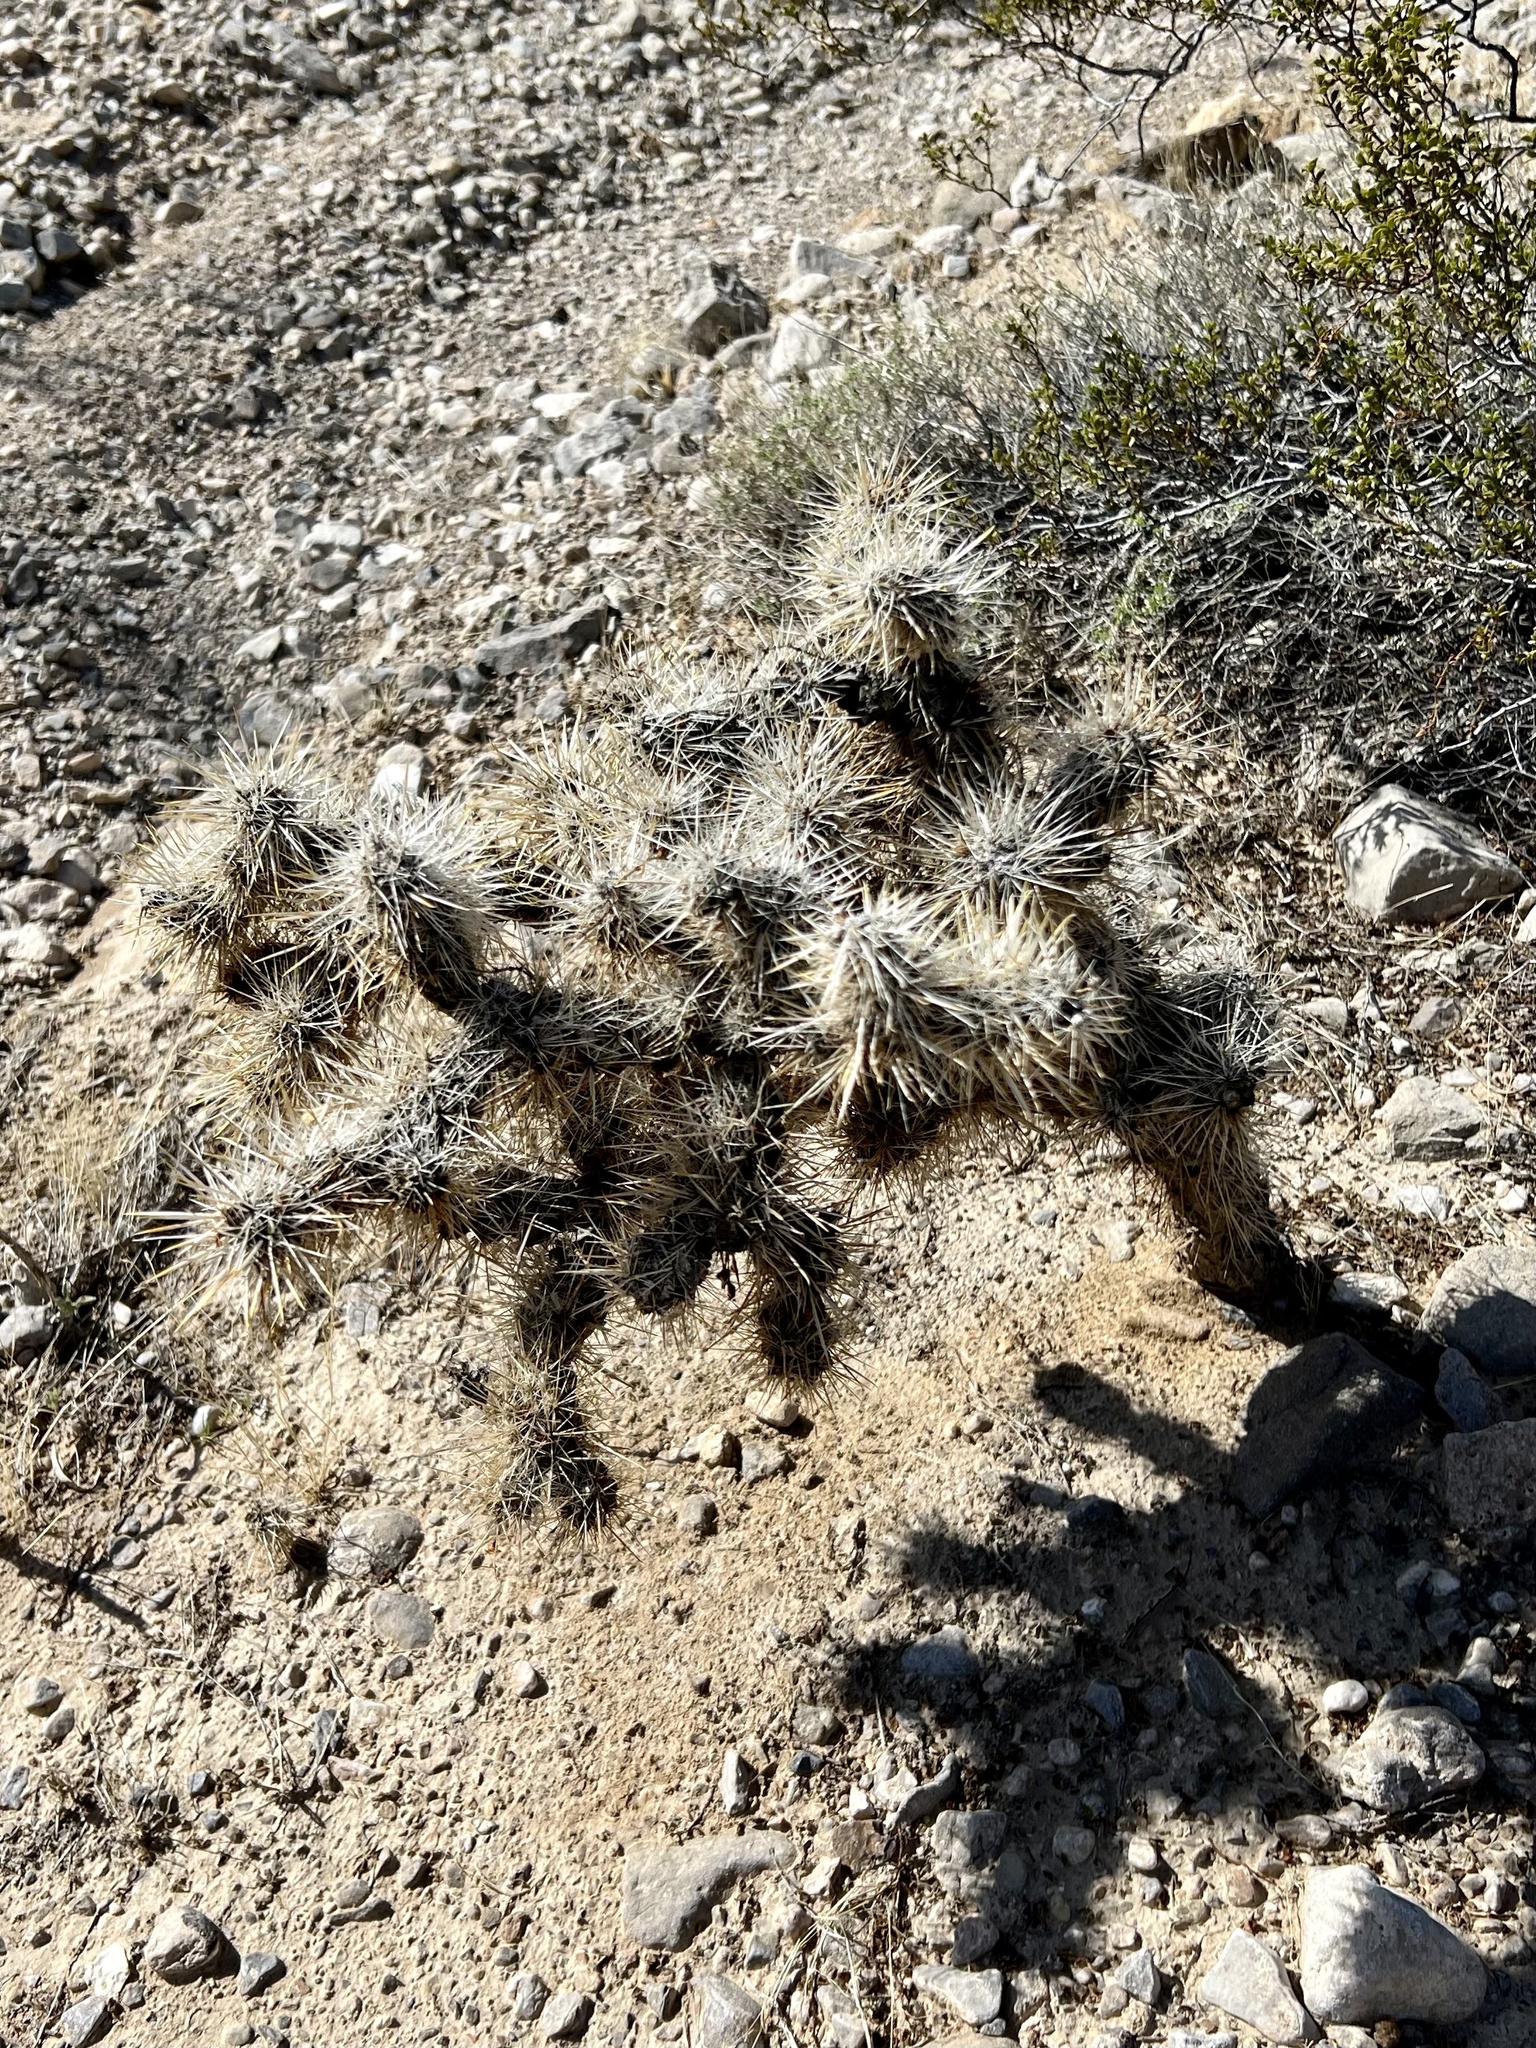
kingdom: Plantae
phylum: Tracheophyta
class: Magnoliopsida
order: Caryophyllales
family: Cactaceae
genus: Cylindropuntia
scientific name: Cylindropuntia echinocarpa
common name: Ground cholla
